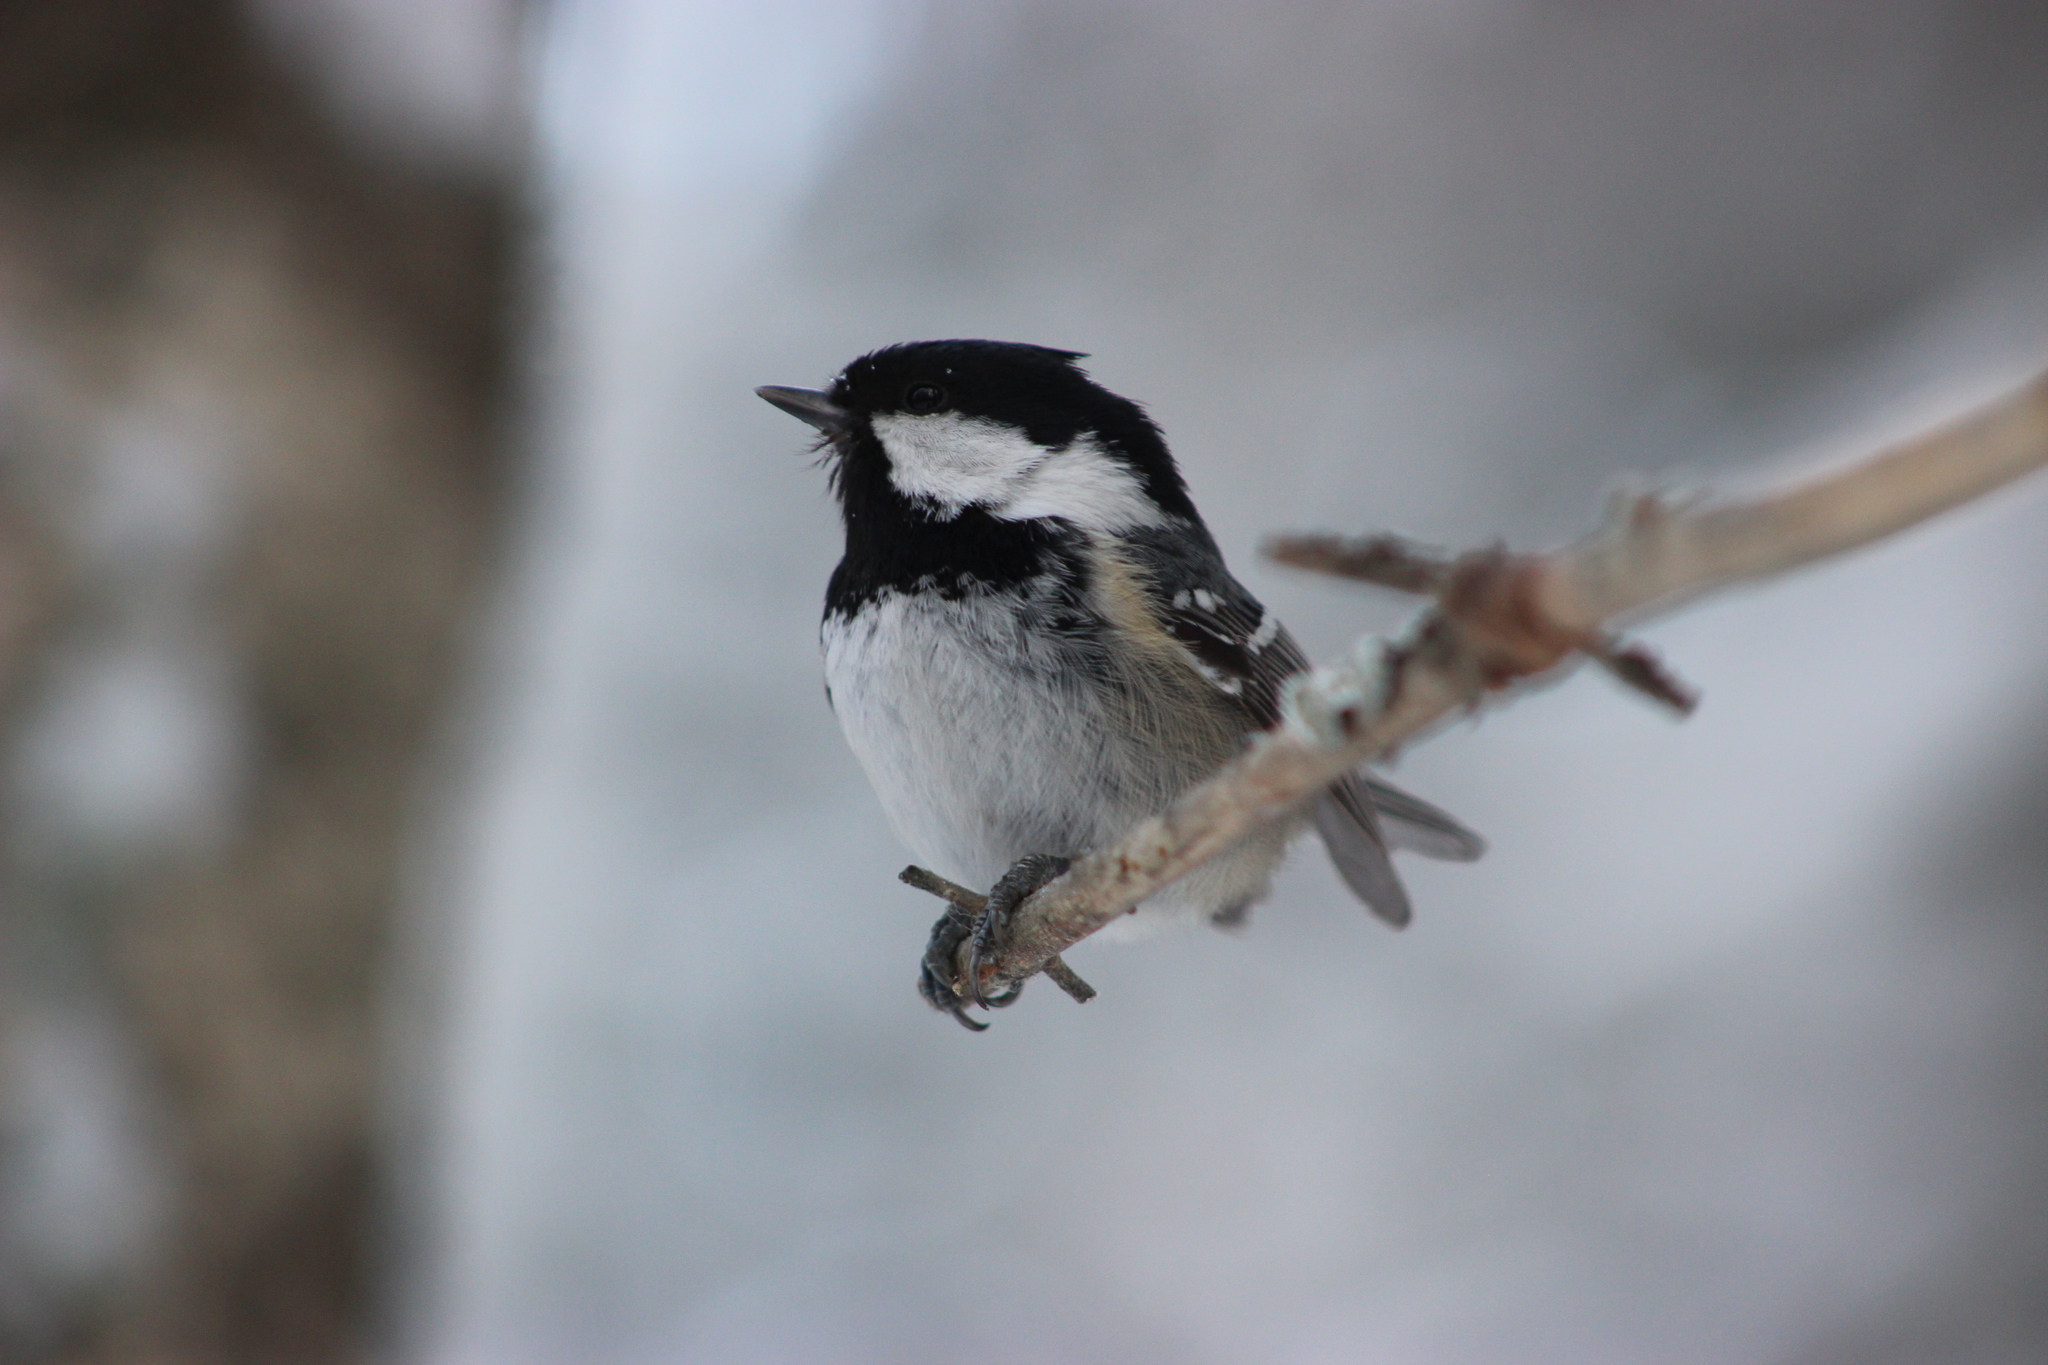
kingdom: Animalia
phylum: Chordata
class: Aves
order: Passeriformes
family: Paridae
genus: Periparus
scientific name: Periparus ater
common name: Coal tit
